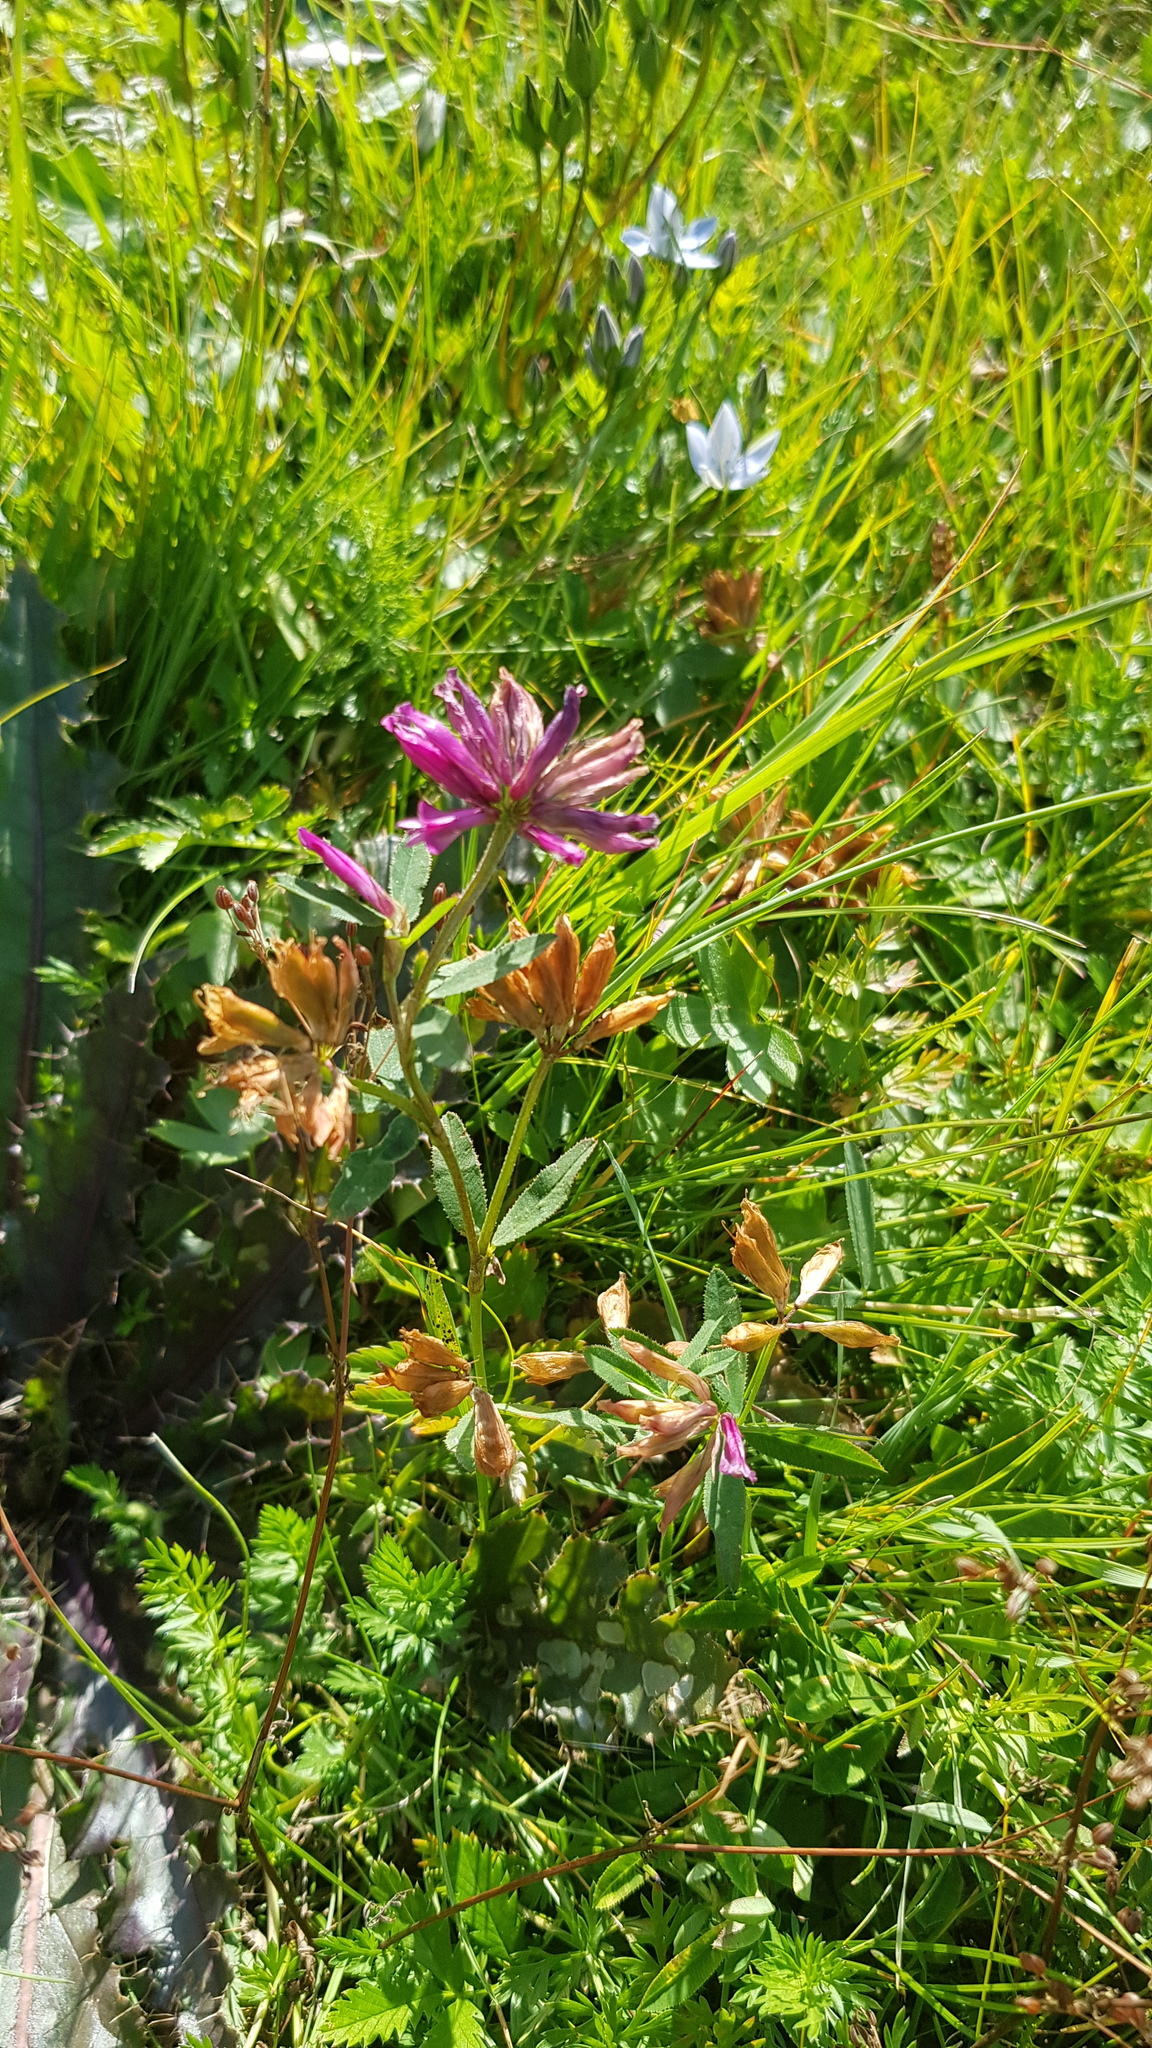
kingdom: Plantae
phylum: Tracheophyta
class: Magnoliopsida
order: Fabales
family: Fabaceae
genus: Trifolium
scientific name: Trifolium lupinaster
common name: Lupine clover
